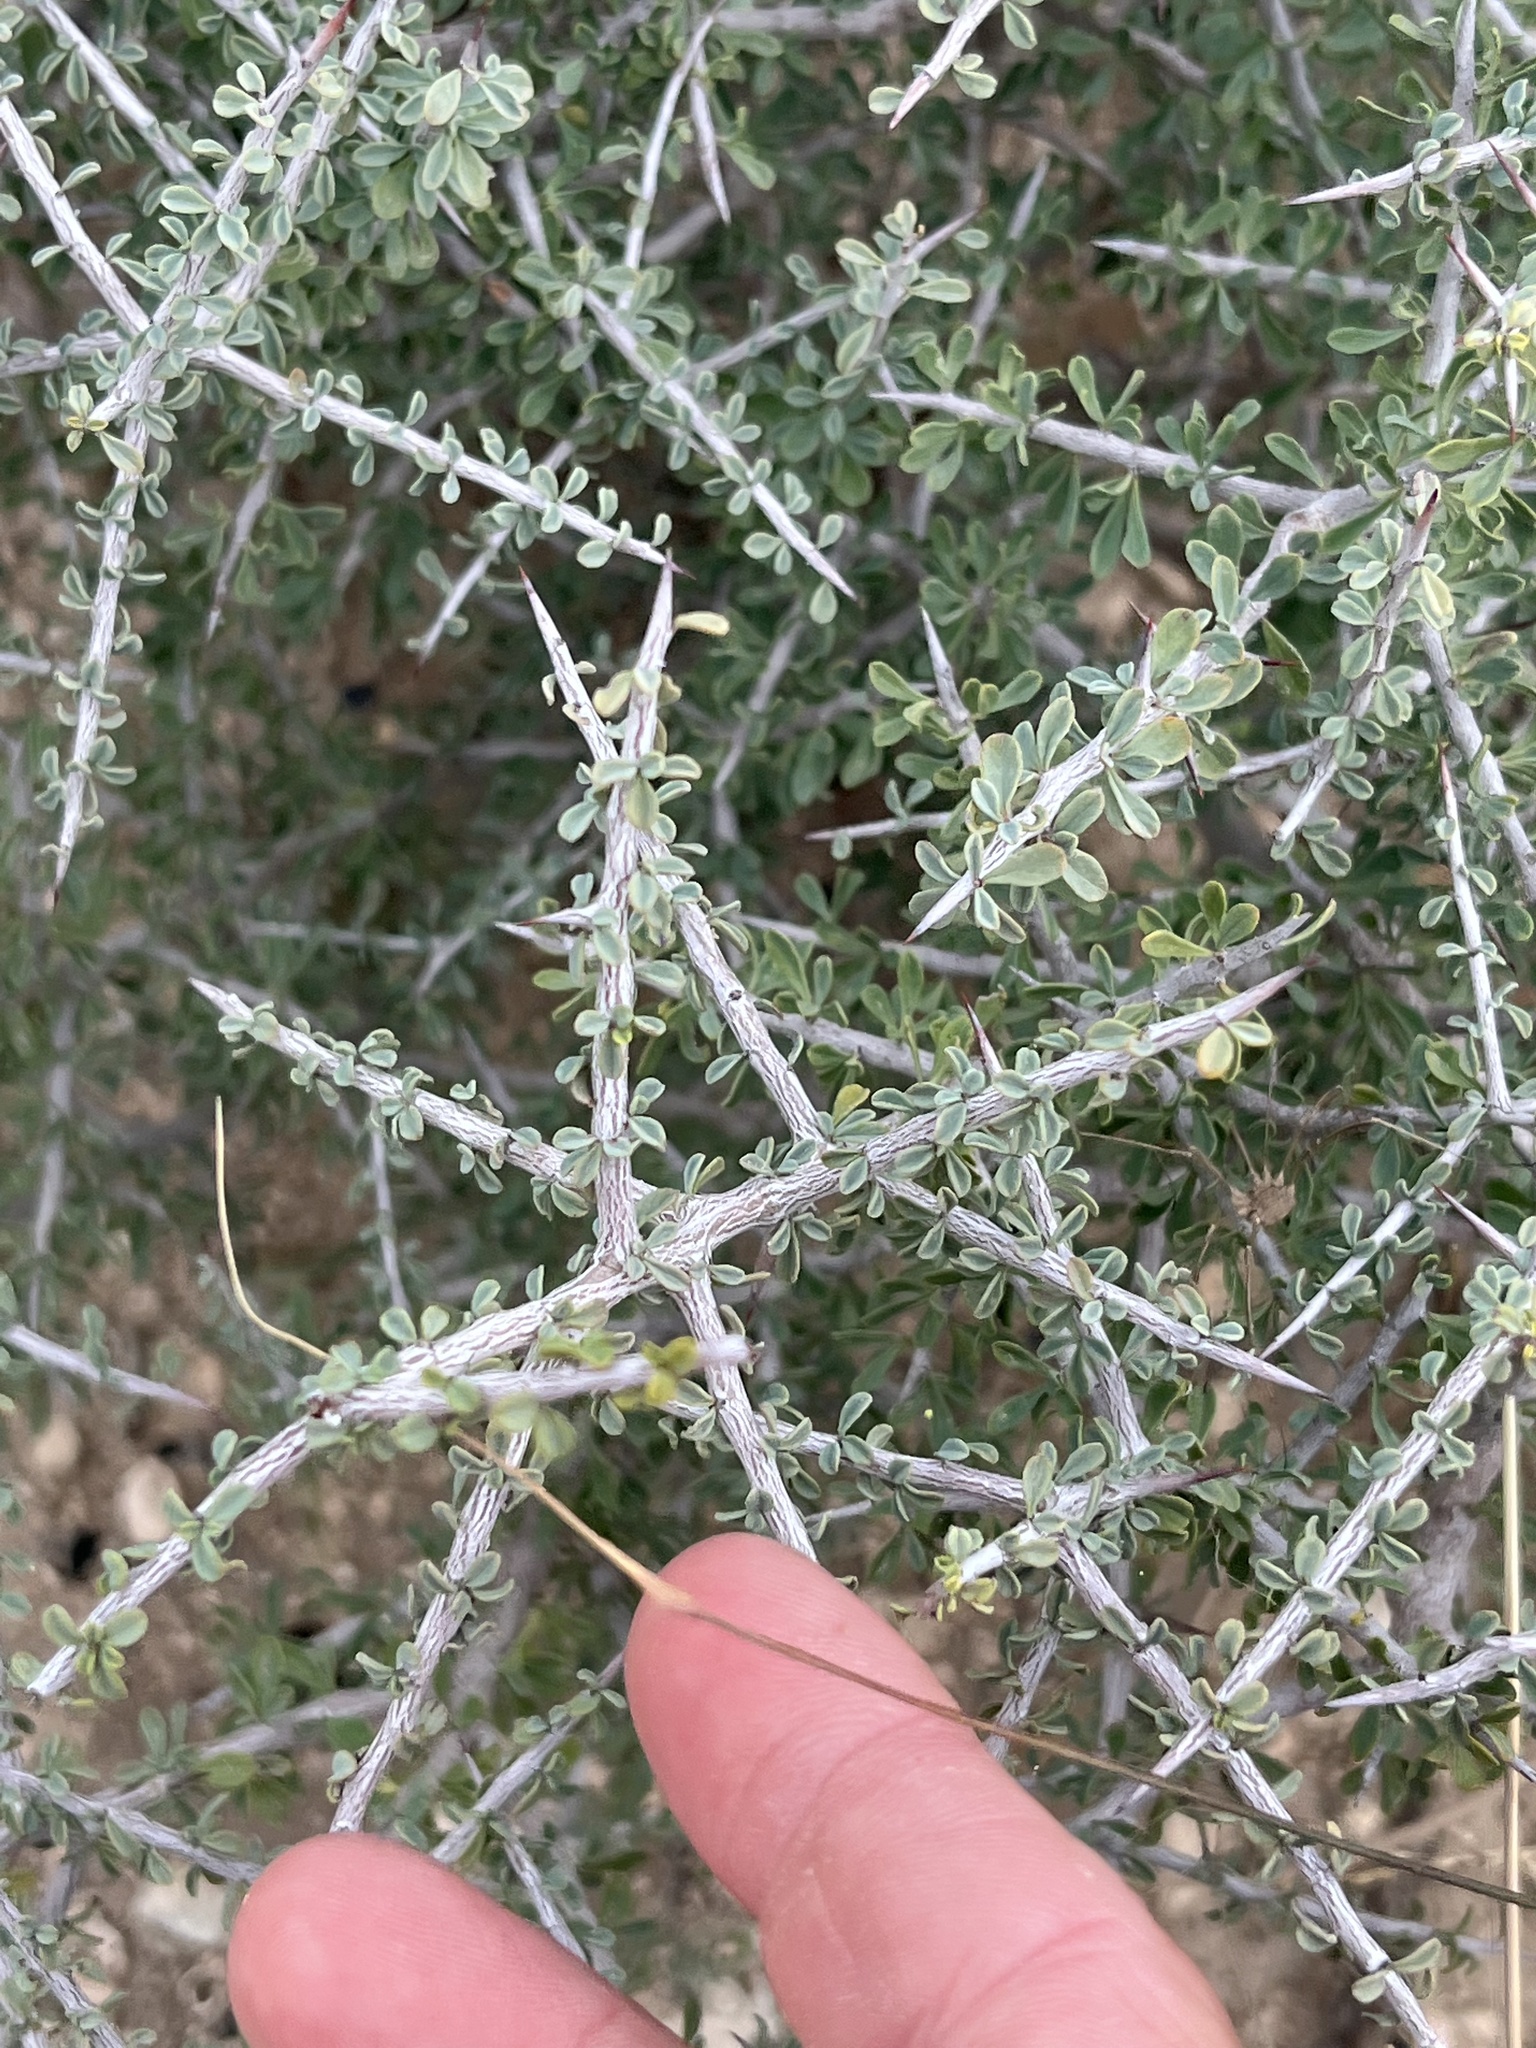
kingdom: Plantae
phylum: Tracheophyta
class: Magnoliopsida
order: Rosales
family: Rhamnaceae
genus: Condalia
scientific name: Condalia spathulata
